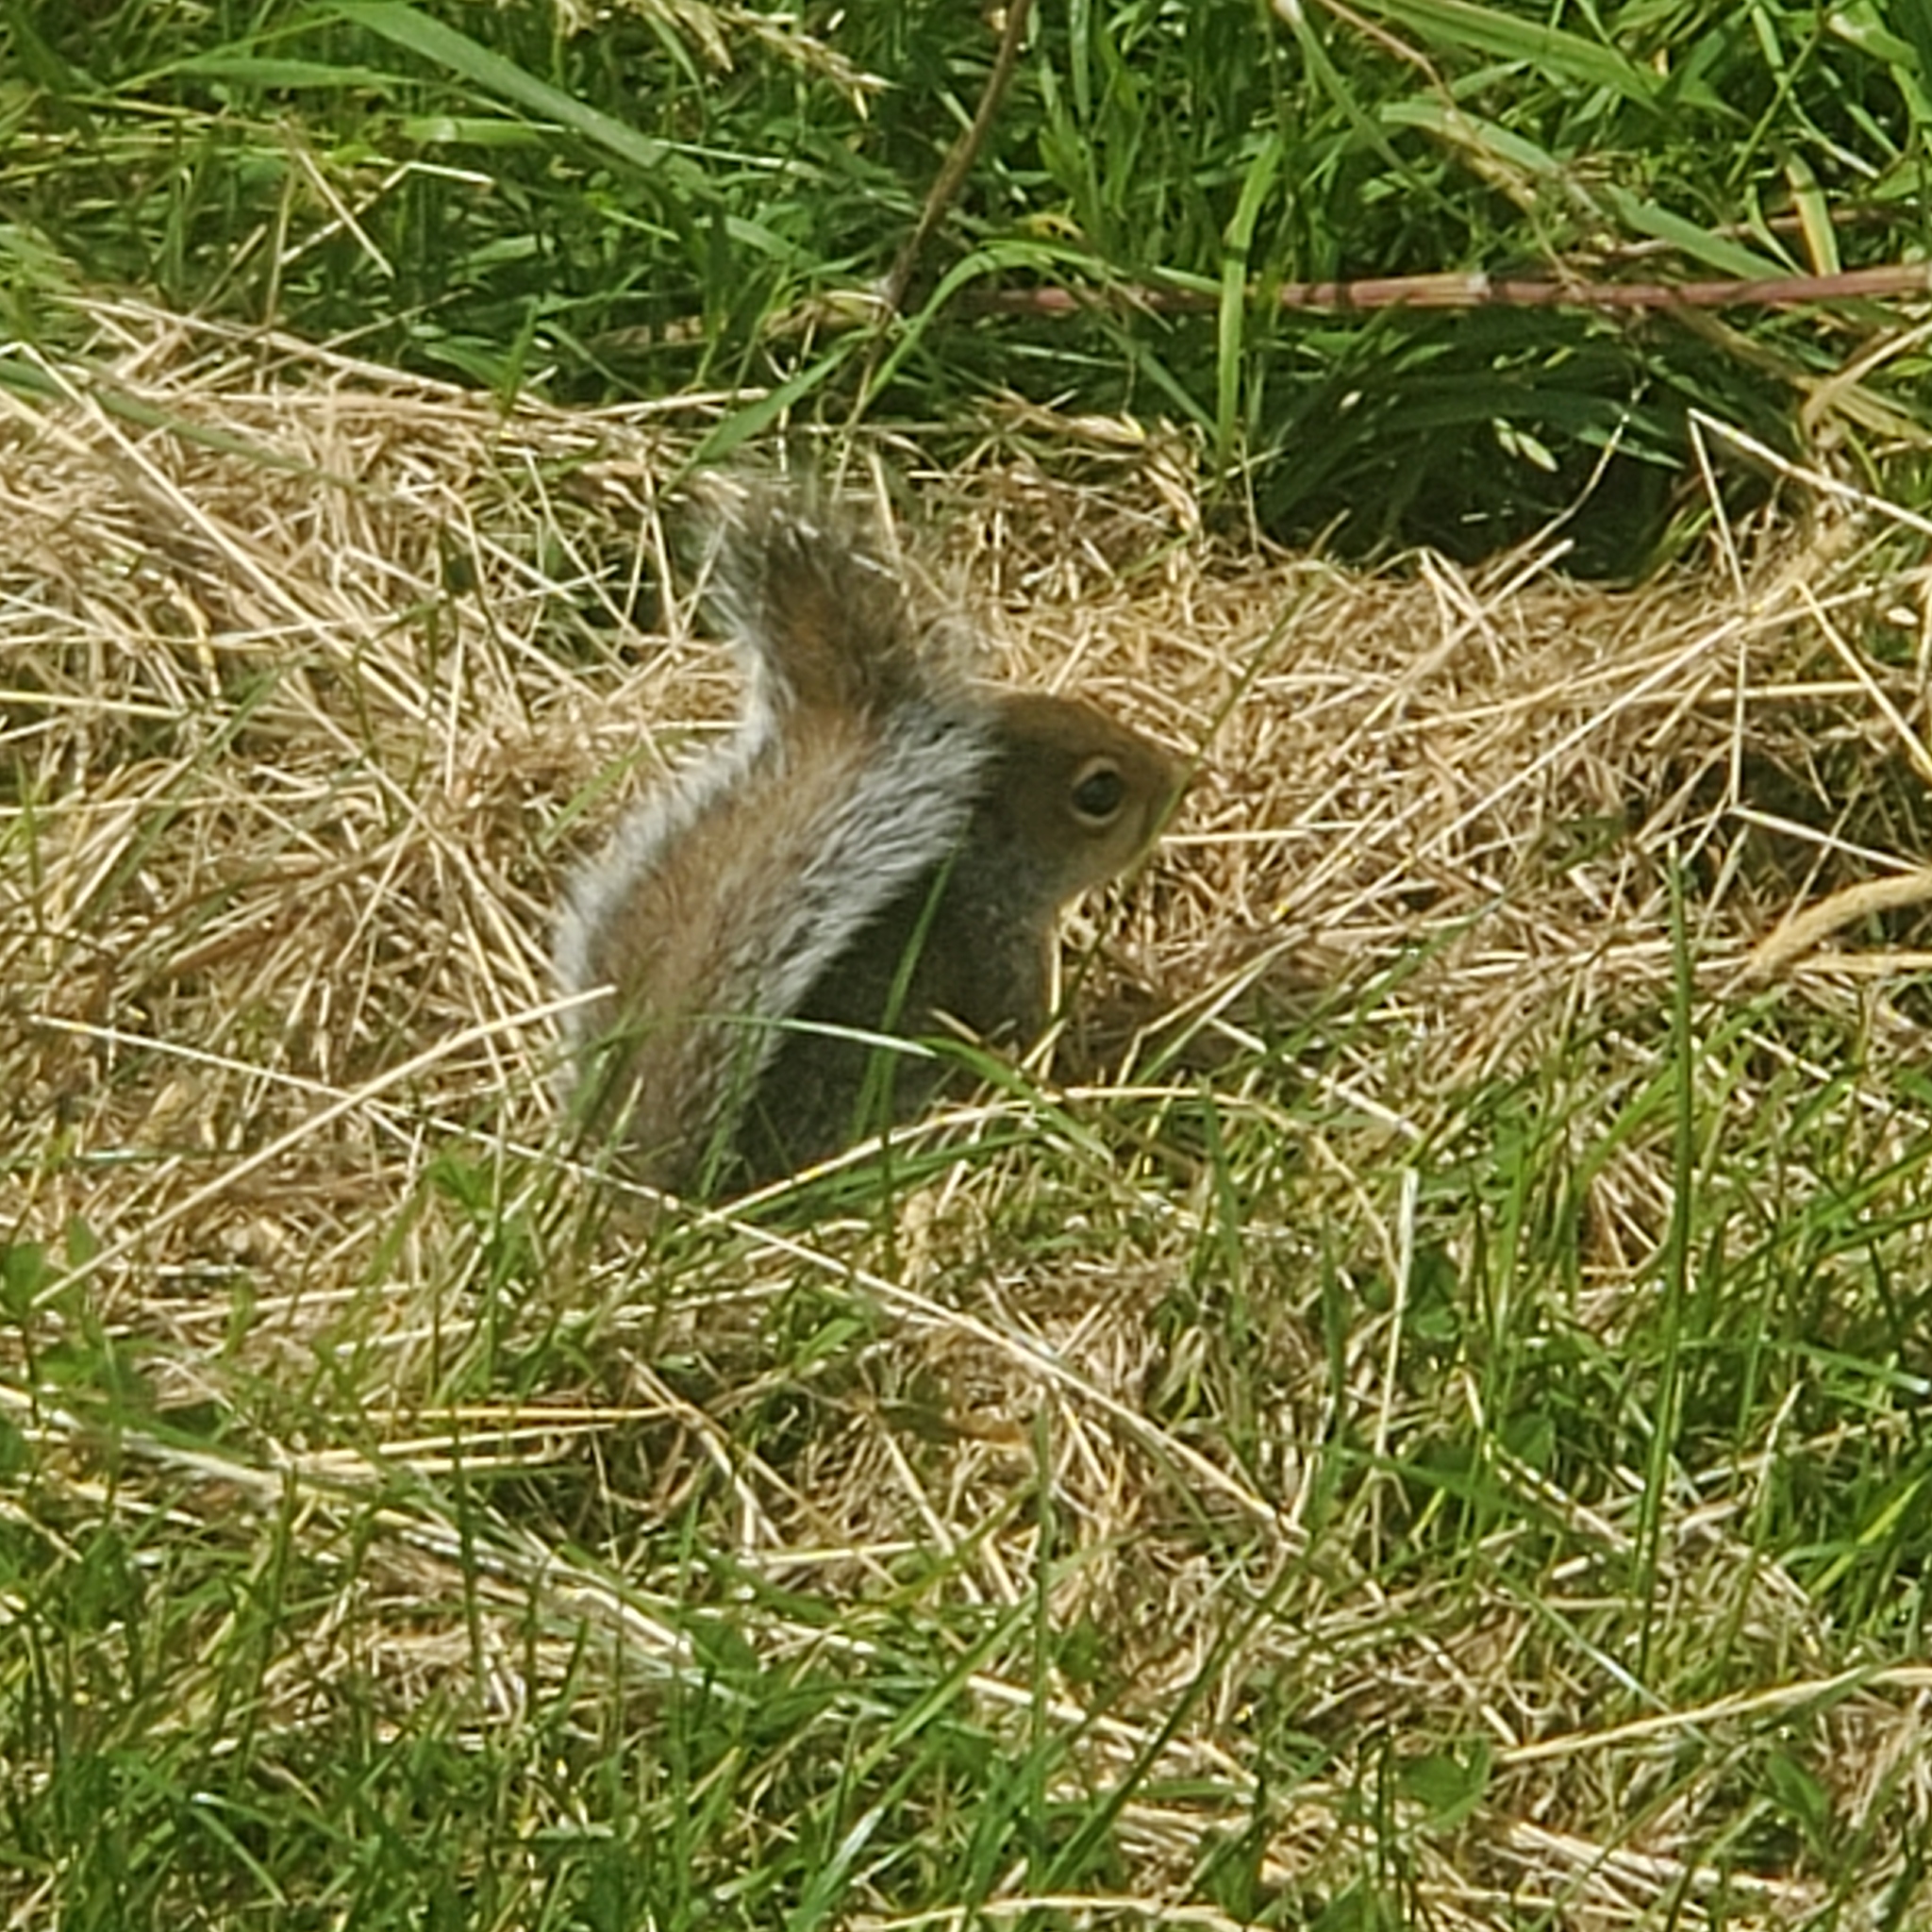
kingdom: Animalia
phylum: Chordata
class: Mammalia
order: Rodentia
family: Sciuridae
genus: Sciurus
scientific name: Sciurus carolinensis
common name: Eastern gray squirrel
